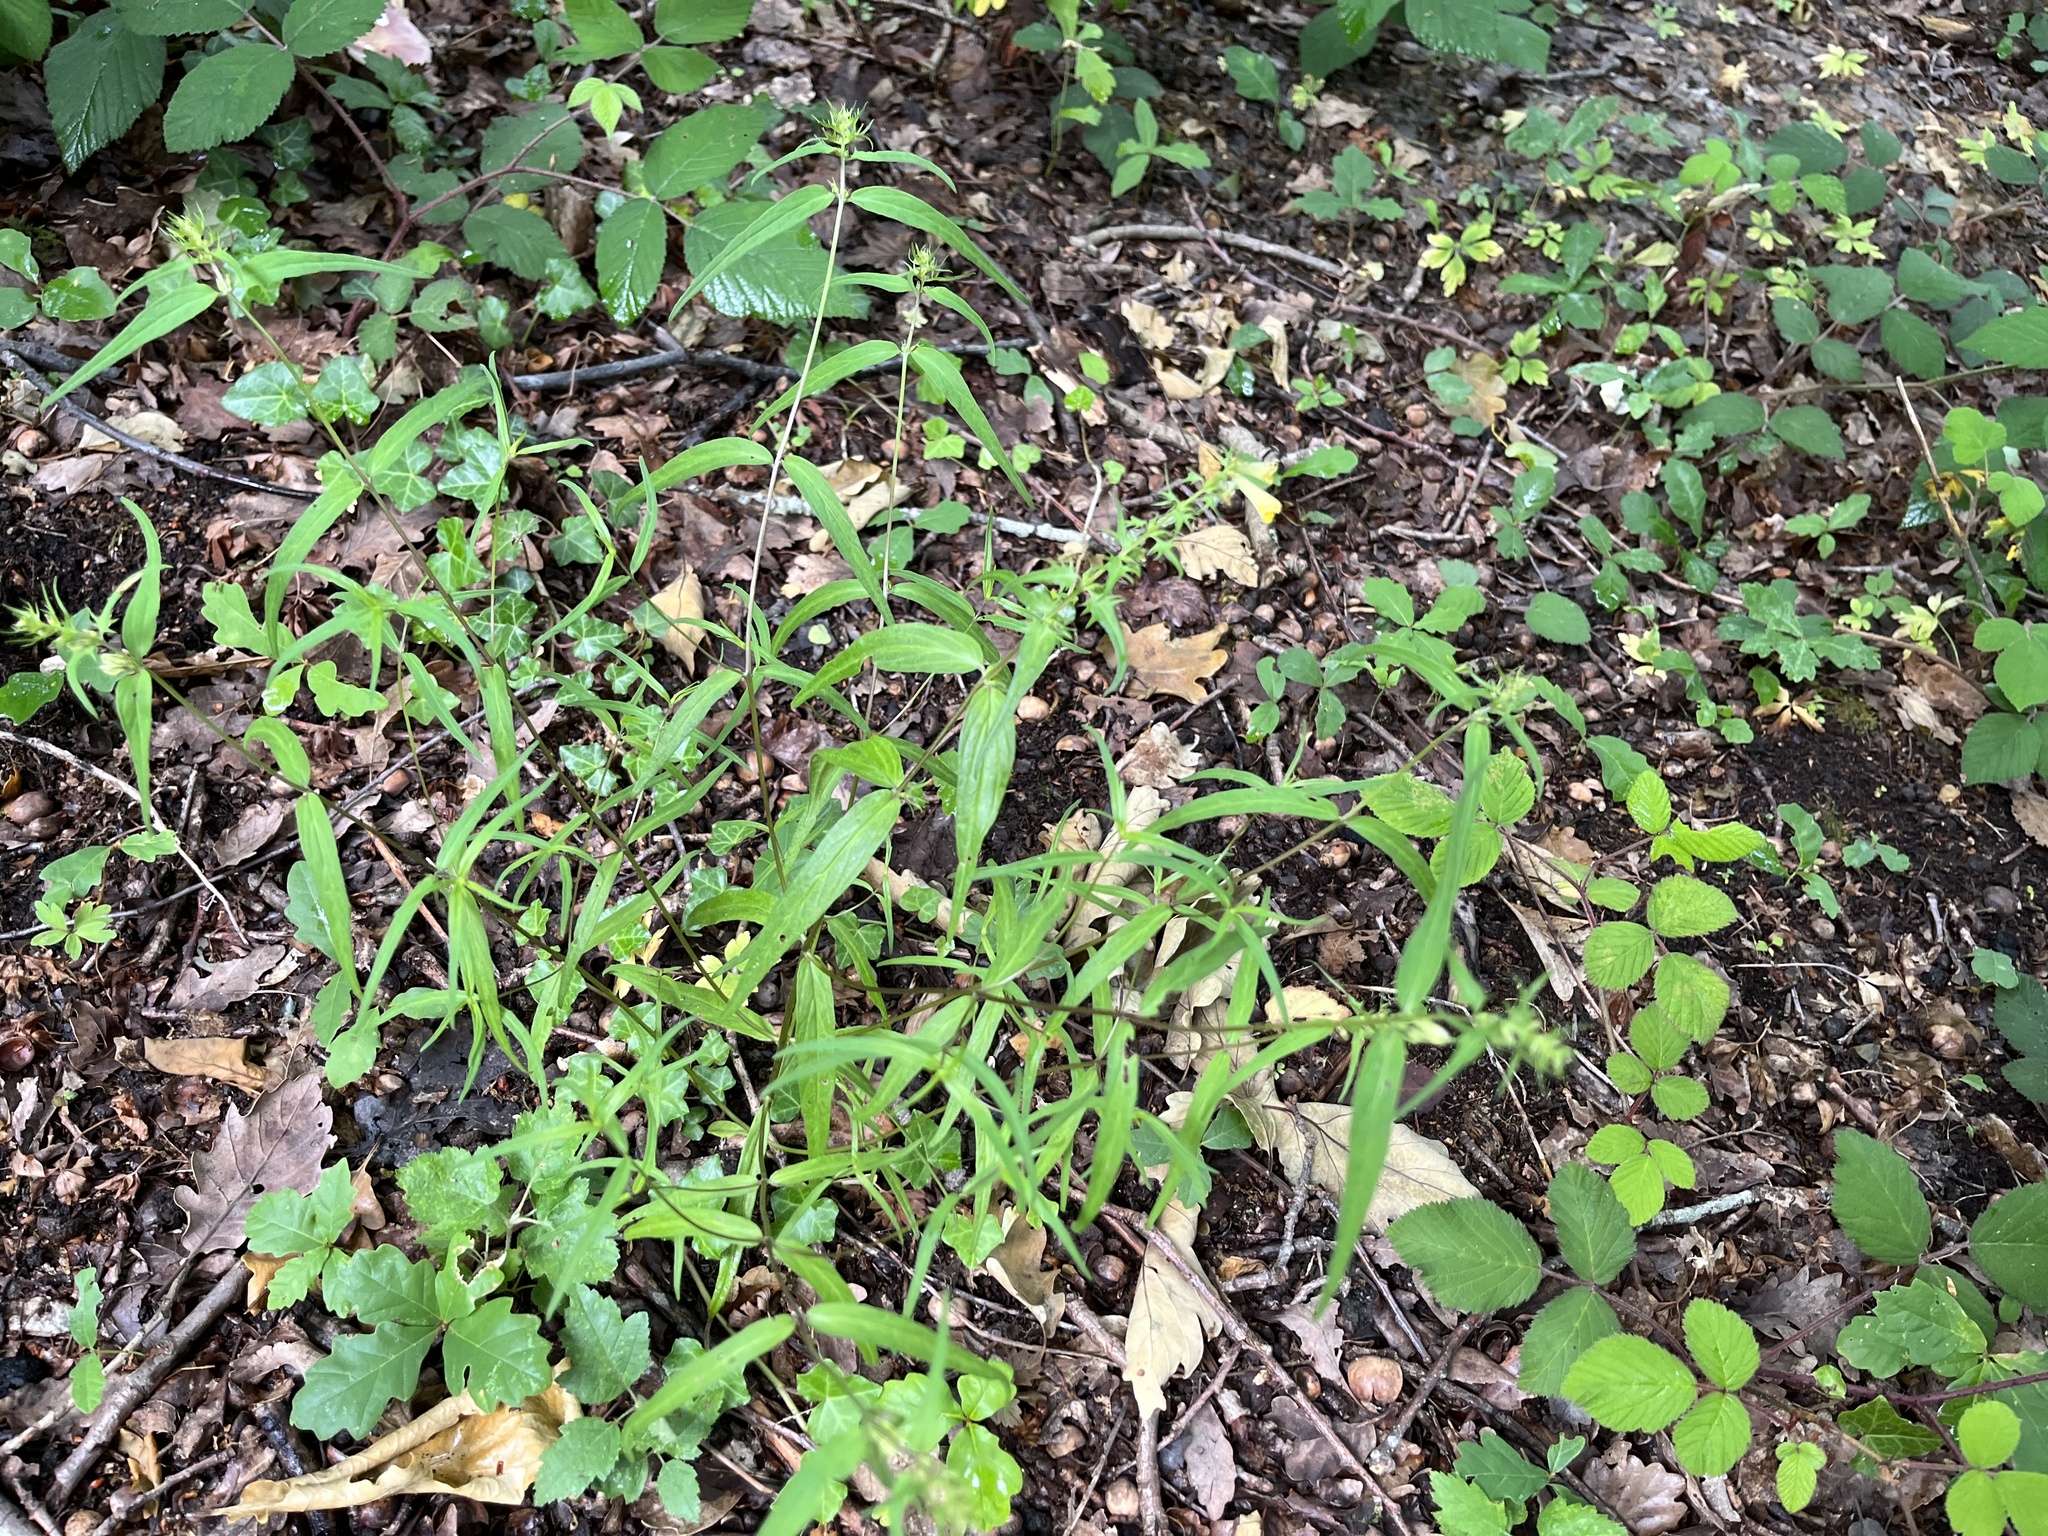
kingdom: Plantae
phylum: Tracheophyta
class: Magnoliopsida
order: Lamiales
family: Orobanchaceae
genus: Melampyrum
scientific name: Melampyrum pratense
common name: Common cow-wheat
